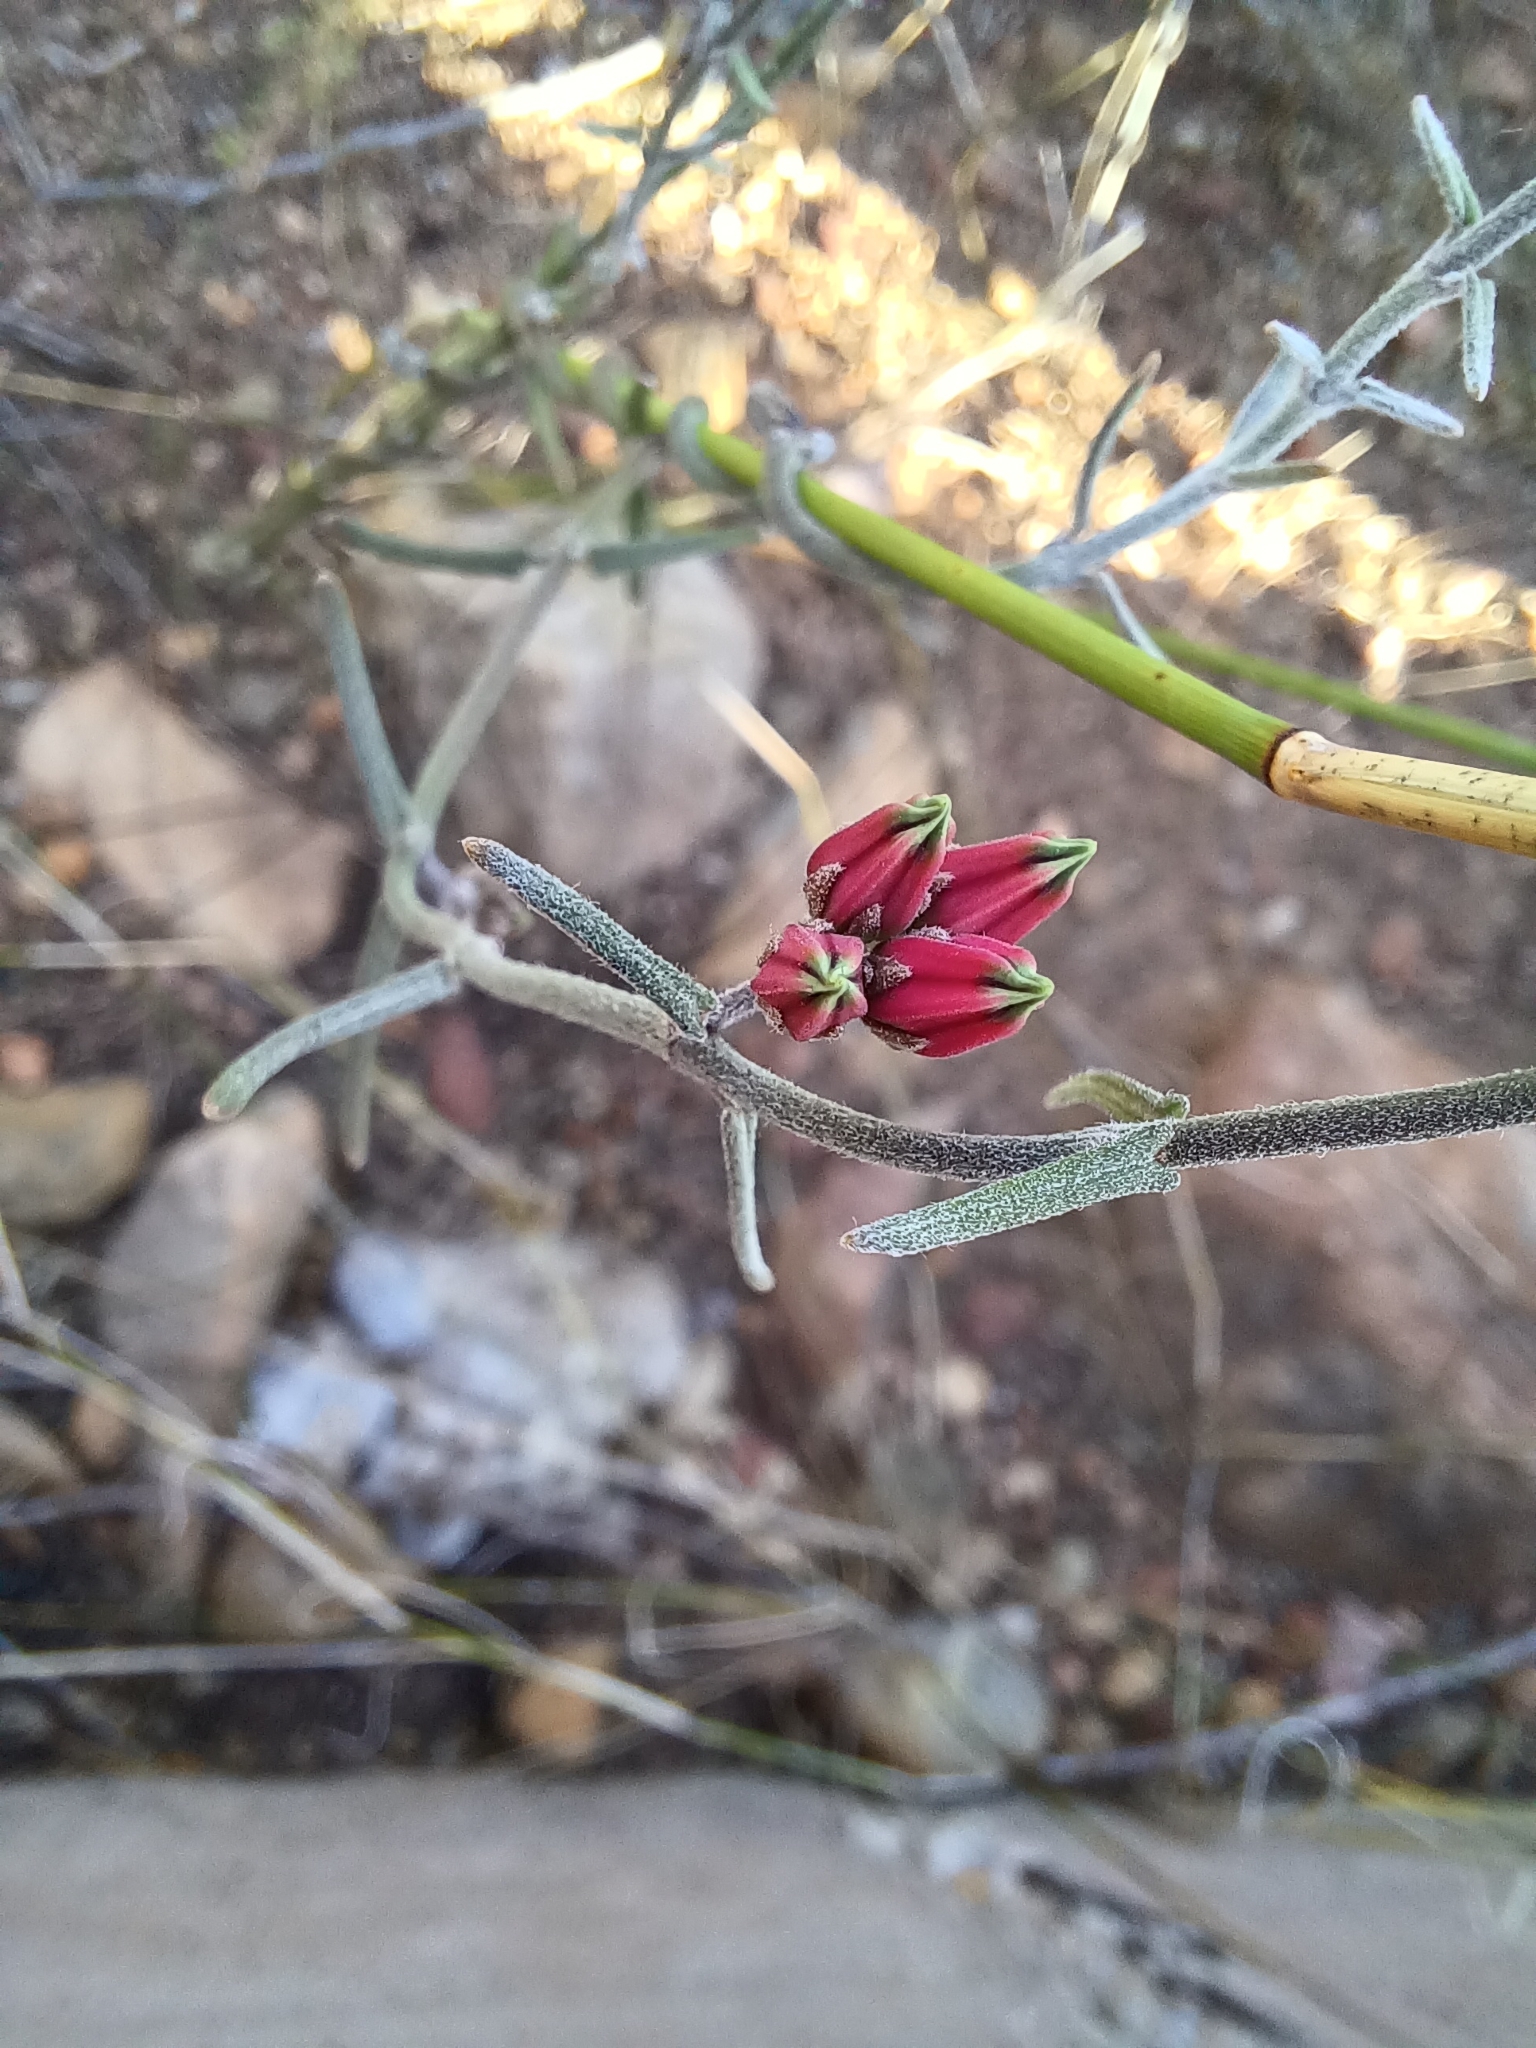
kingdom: Plantae
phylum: Tracheophyta
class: Magnoliopsida
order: Gentianales
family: Apocynaceae
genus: Microloma
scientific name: Microloma sagittatum
